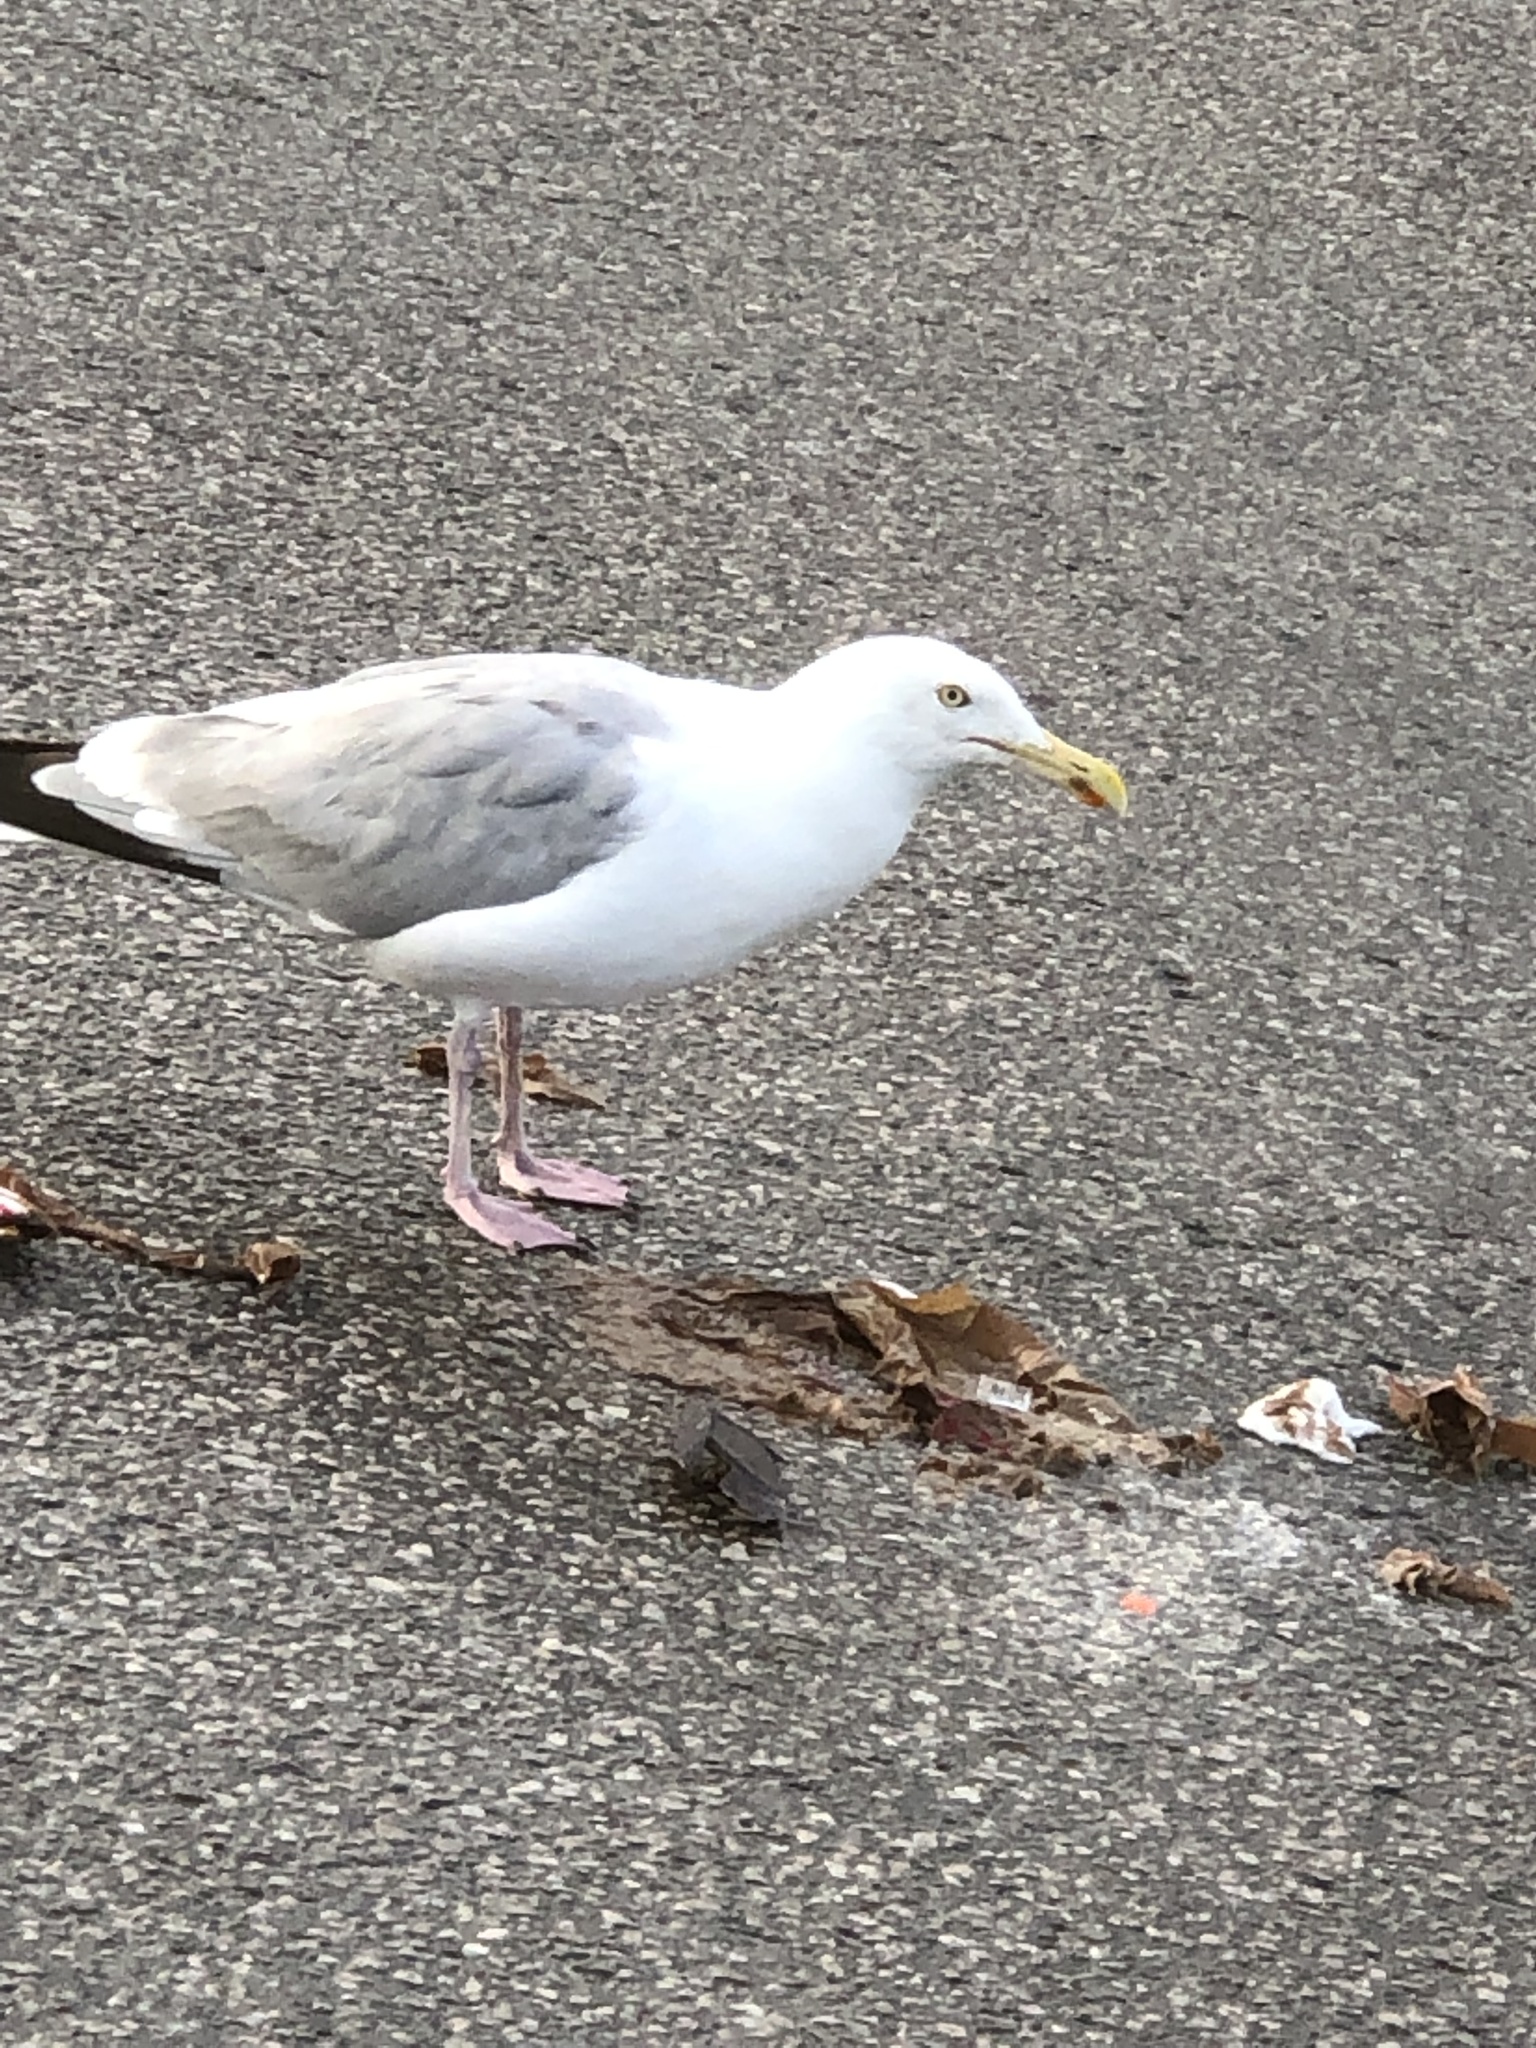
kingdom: Animalia
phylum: Chordata
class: Aves
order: Charadriiformes
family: Laridae
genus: Larus
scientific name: Larus argentatus
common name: Herring gull
